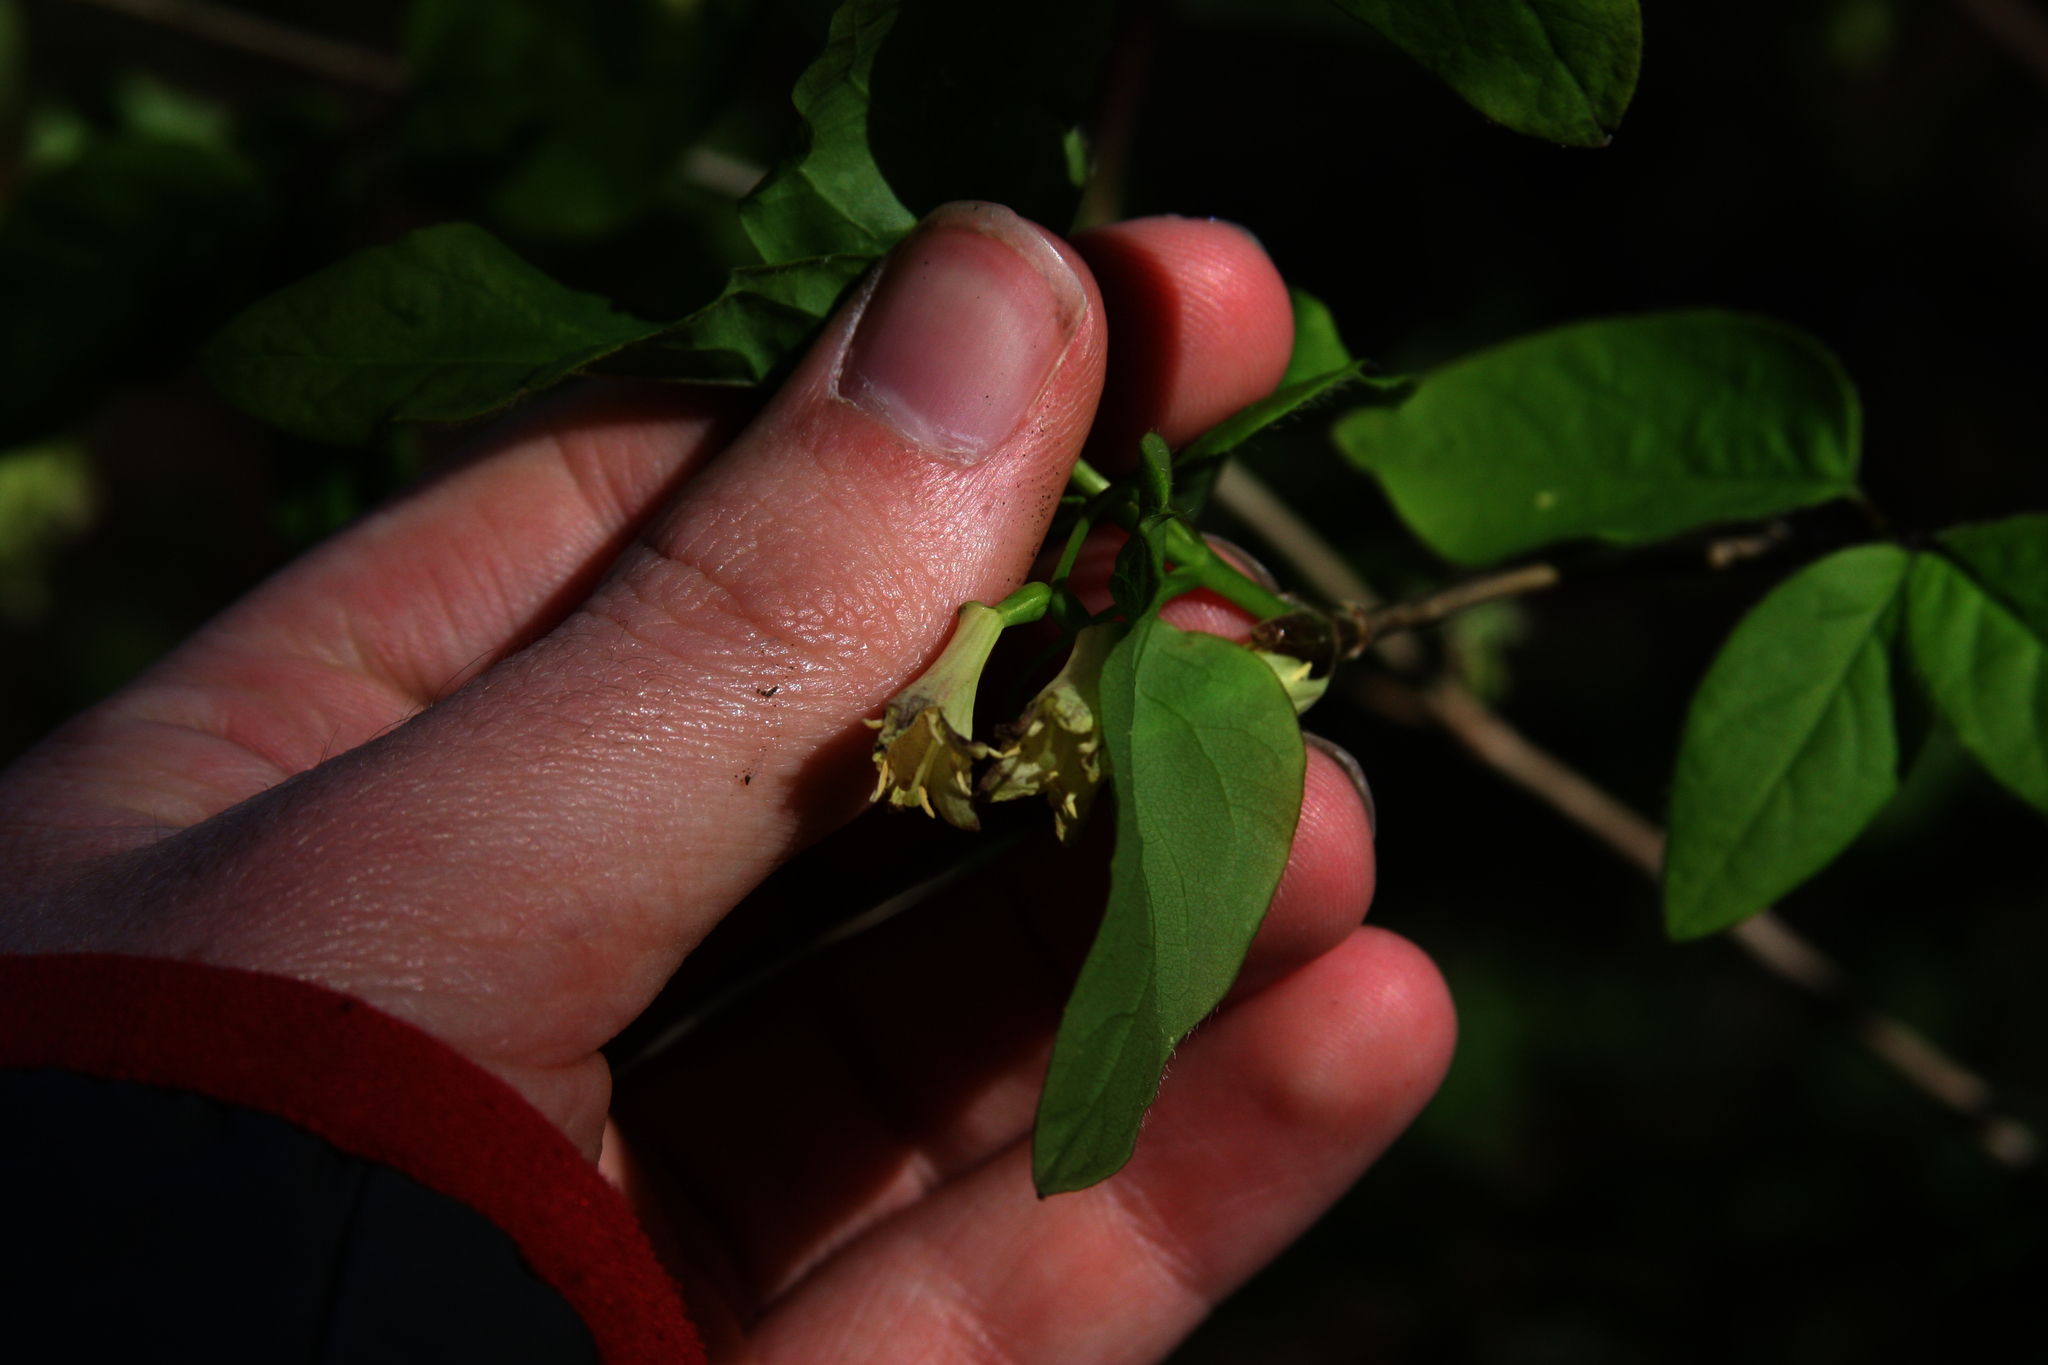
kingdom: Plantae
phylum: Tracheophyta
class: Magnoliopsida
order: Dipsacales
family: Caprifoliaceae
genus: Lonicera
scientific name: Lonicera canadensis
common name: American fly-honeysuckle
